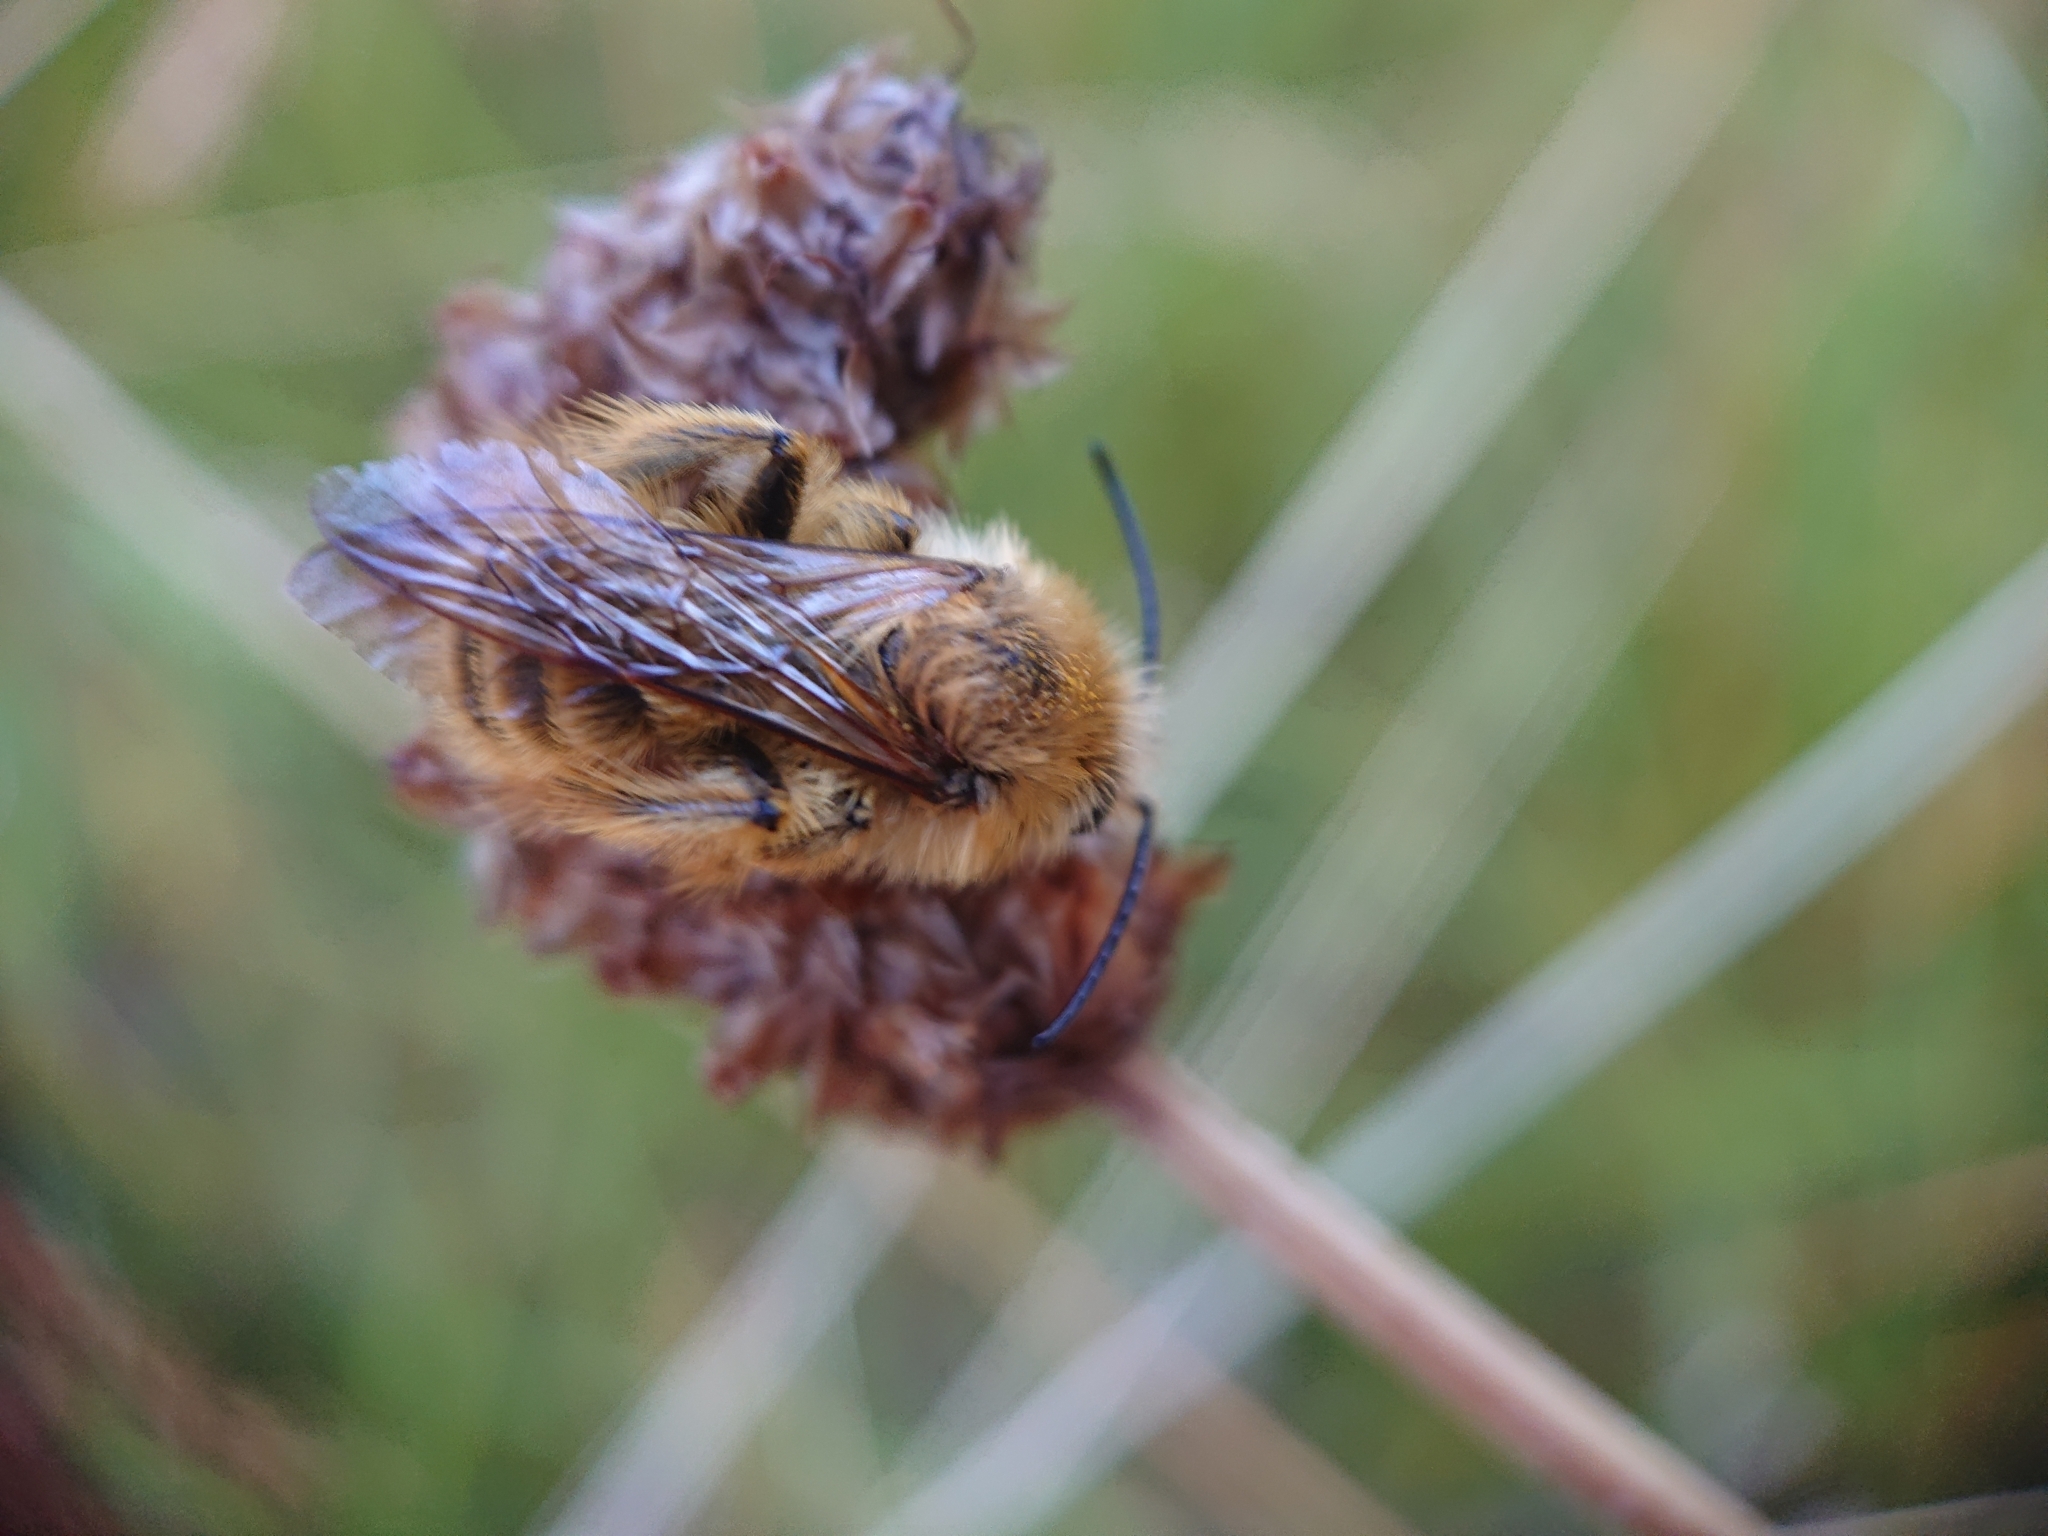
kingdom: Animalia
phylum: Arthropoda
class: Insecta
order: Hymenoptera
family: Melittidae
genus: Dasypoda
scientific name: Dasypoda hirtipes
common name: Pantaloon bee
